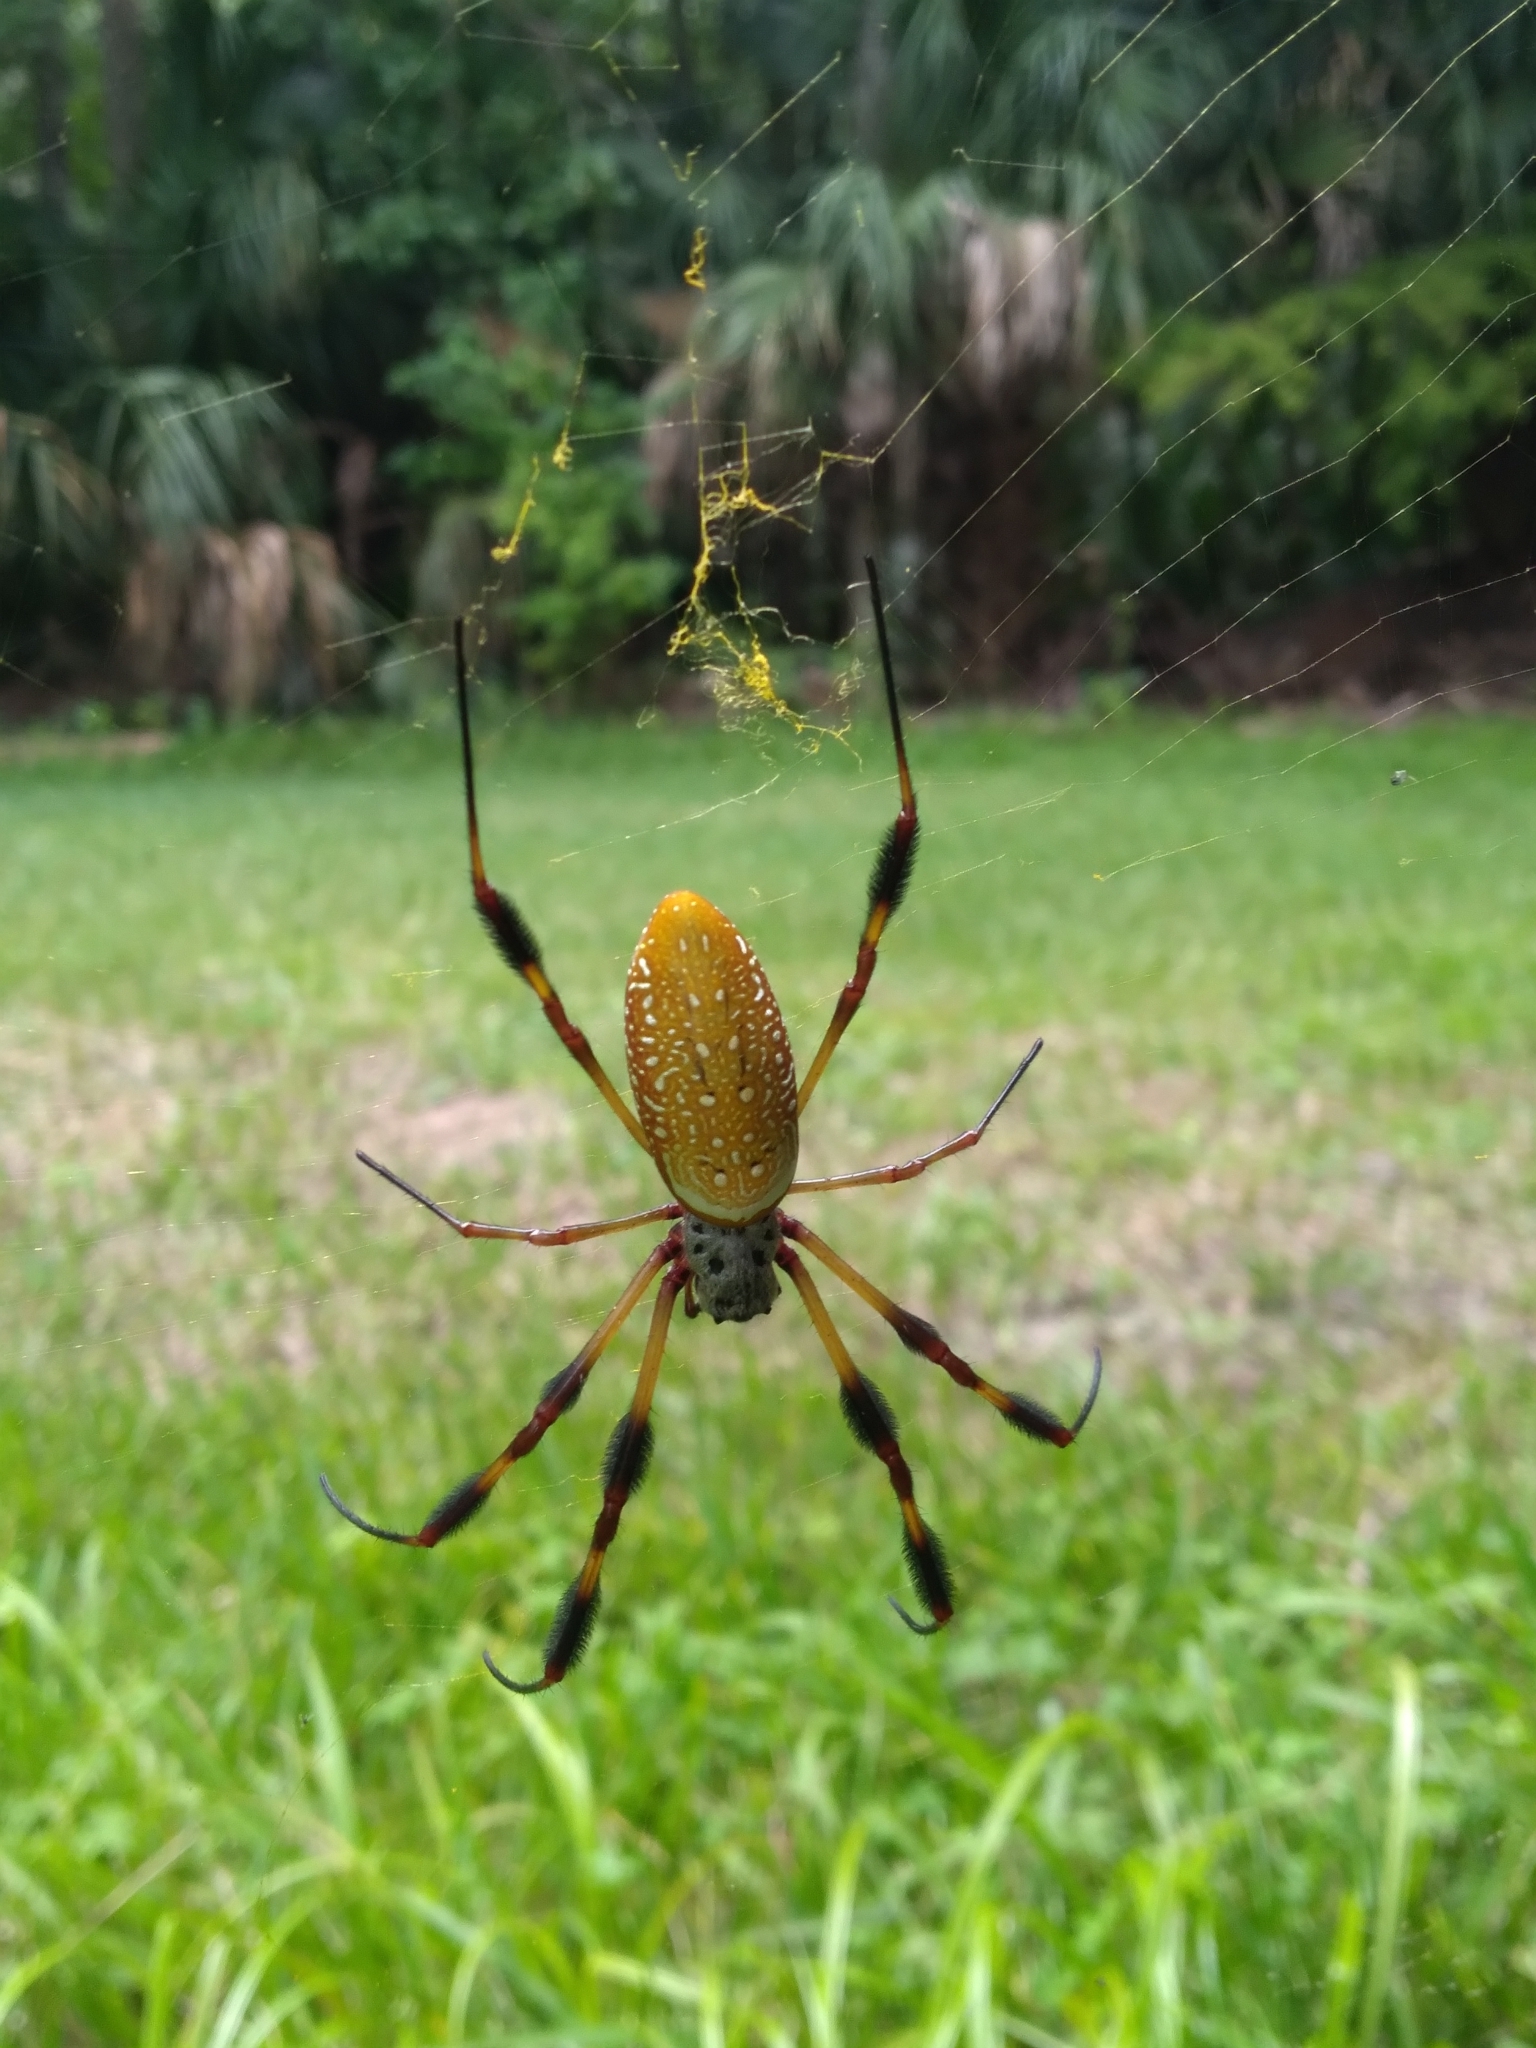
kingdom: Animalia
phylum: Arthropoda
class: Arachnida
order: Araneae
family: Araneidae
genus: Trichonephila
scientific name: Trichonephila clavipes
